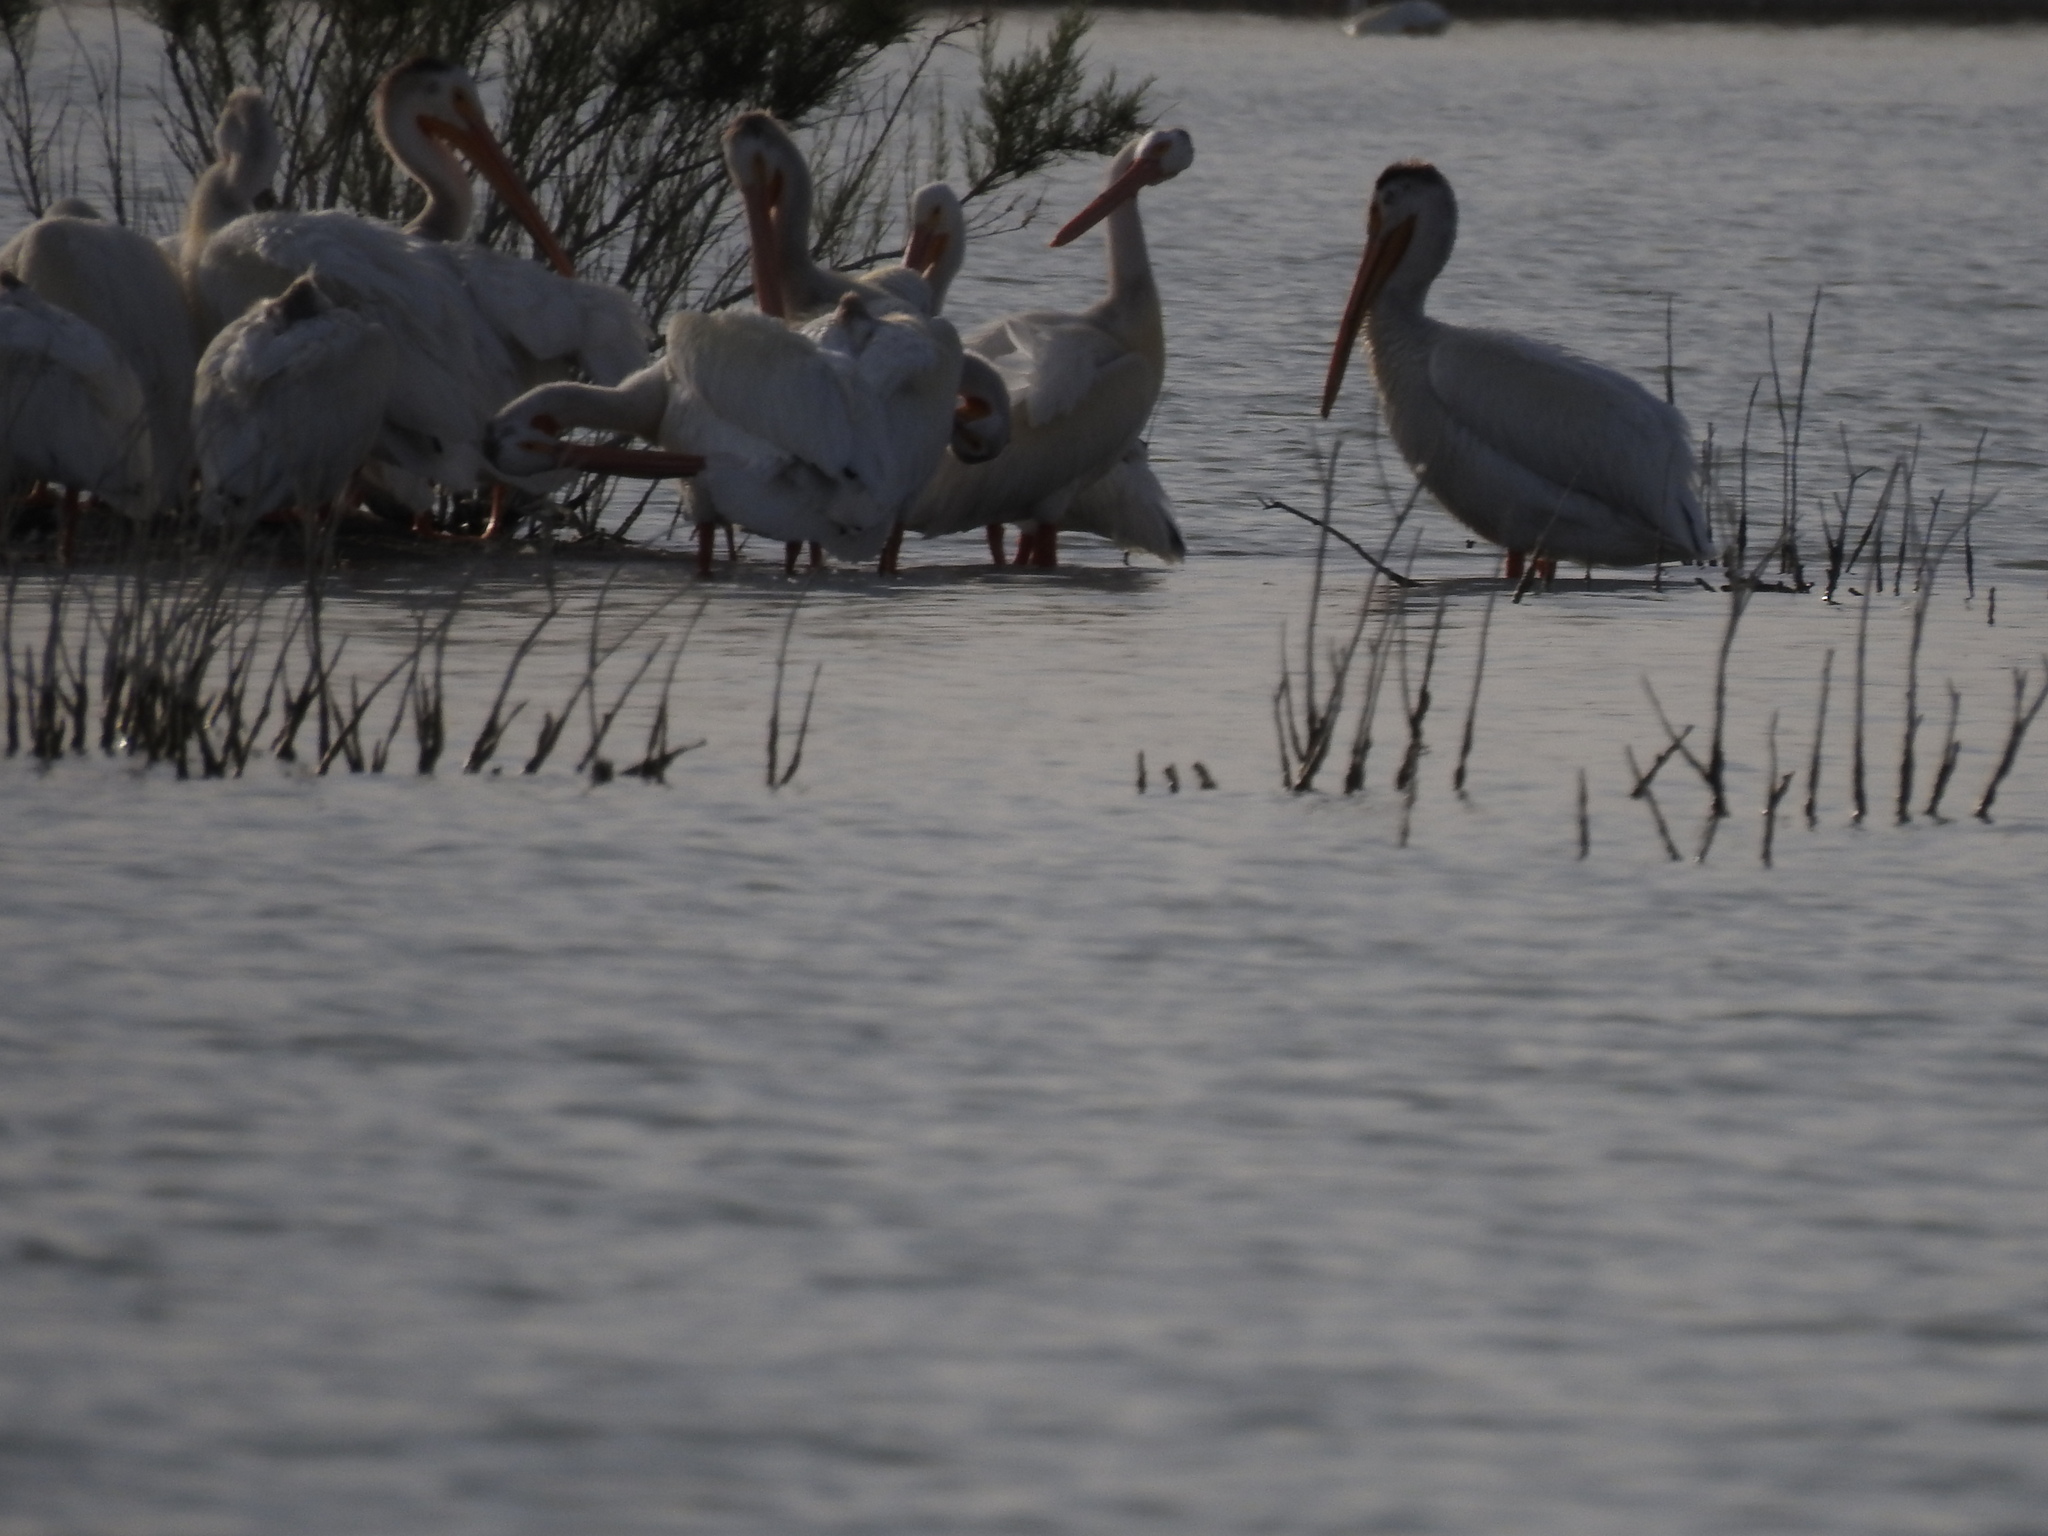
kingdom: Animalia
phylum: Chordata
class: Aves
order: Pelecaniformes
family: Pelecanidae
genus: Pelecanus
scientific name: Pelecanus erythrorhynchos
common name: American white pelican
